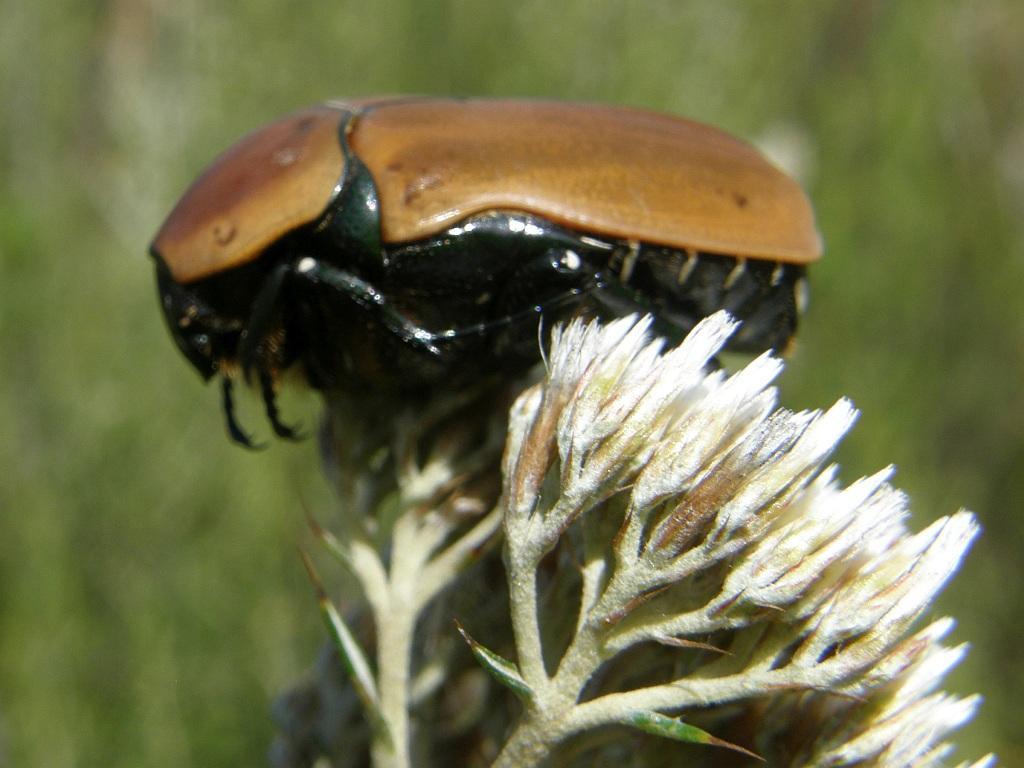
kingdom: Animalia
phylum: Arthropoda
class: Insecta
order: Coleoptera
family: Scarabaeidae
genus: Dischista
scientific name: Dischista rufa
